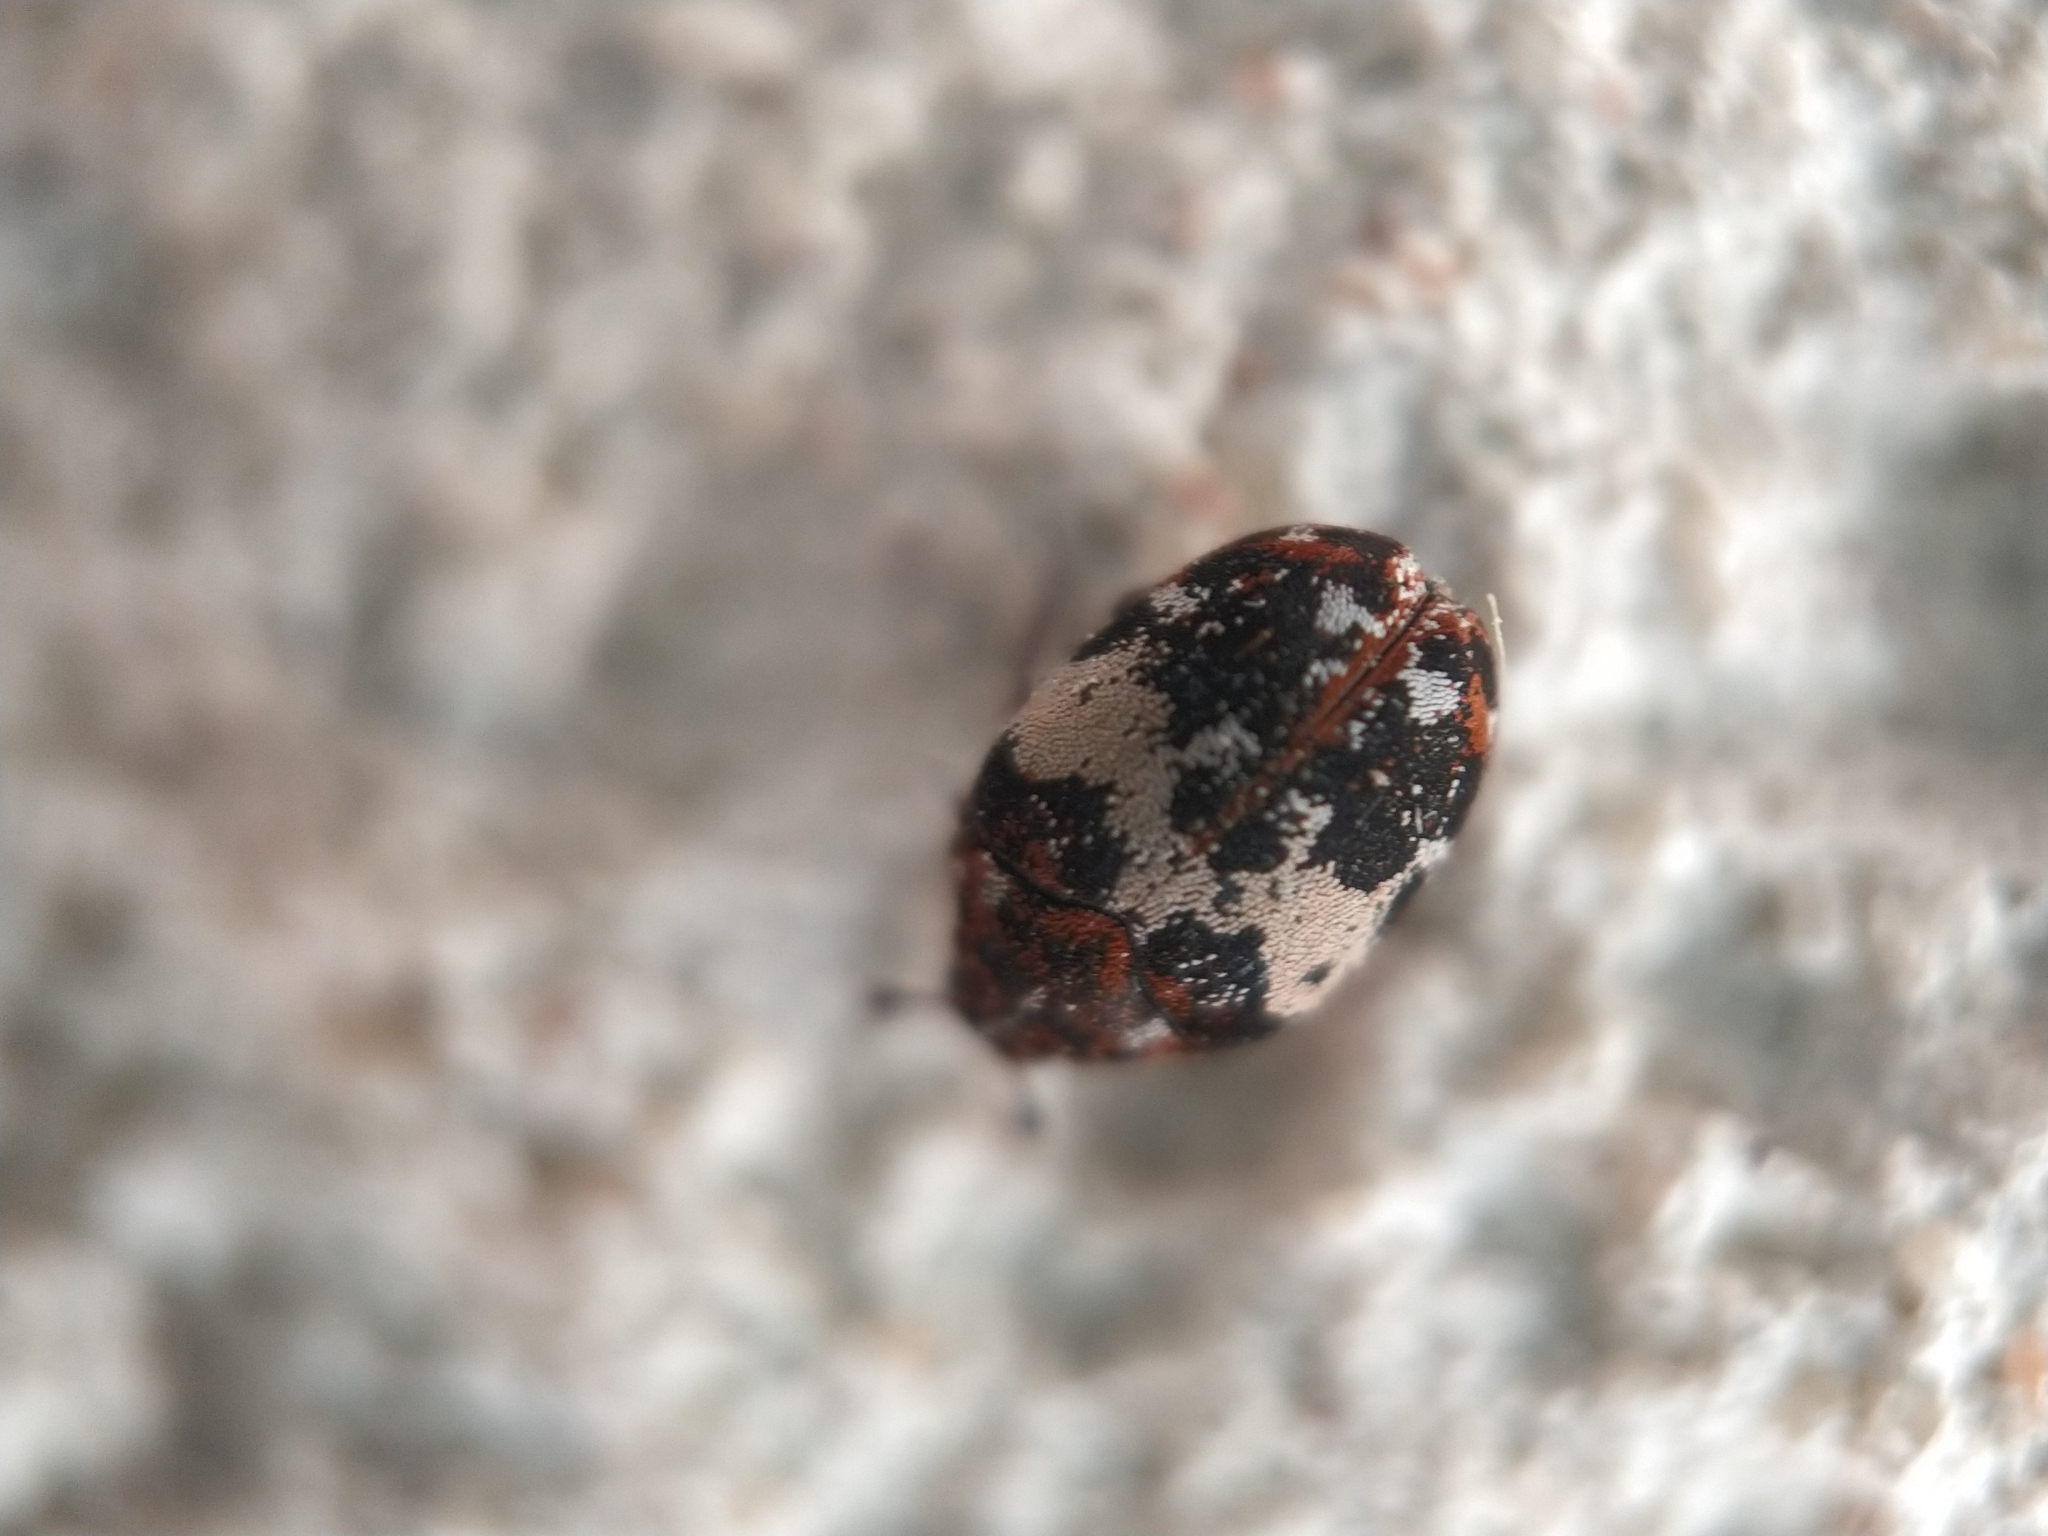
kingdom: Animalia
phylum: Arthropoda
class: Insecta
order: Coleoptera
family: Dermestidae
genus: Anthrenus
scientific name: Anthrenus pimpinellae
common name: Dermestid beetle
